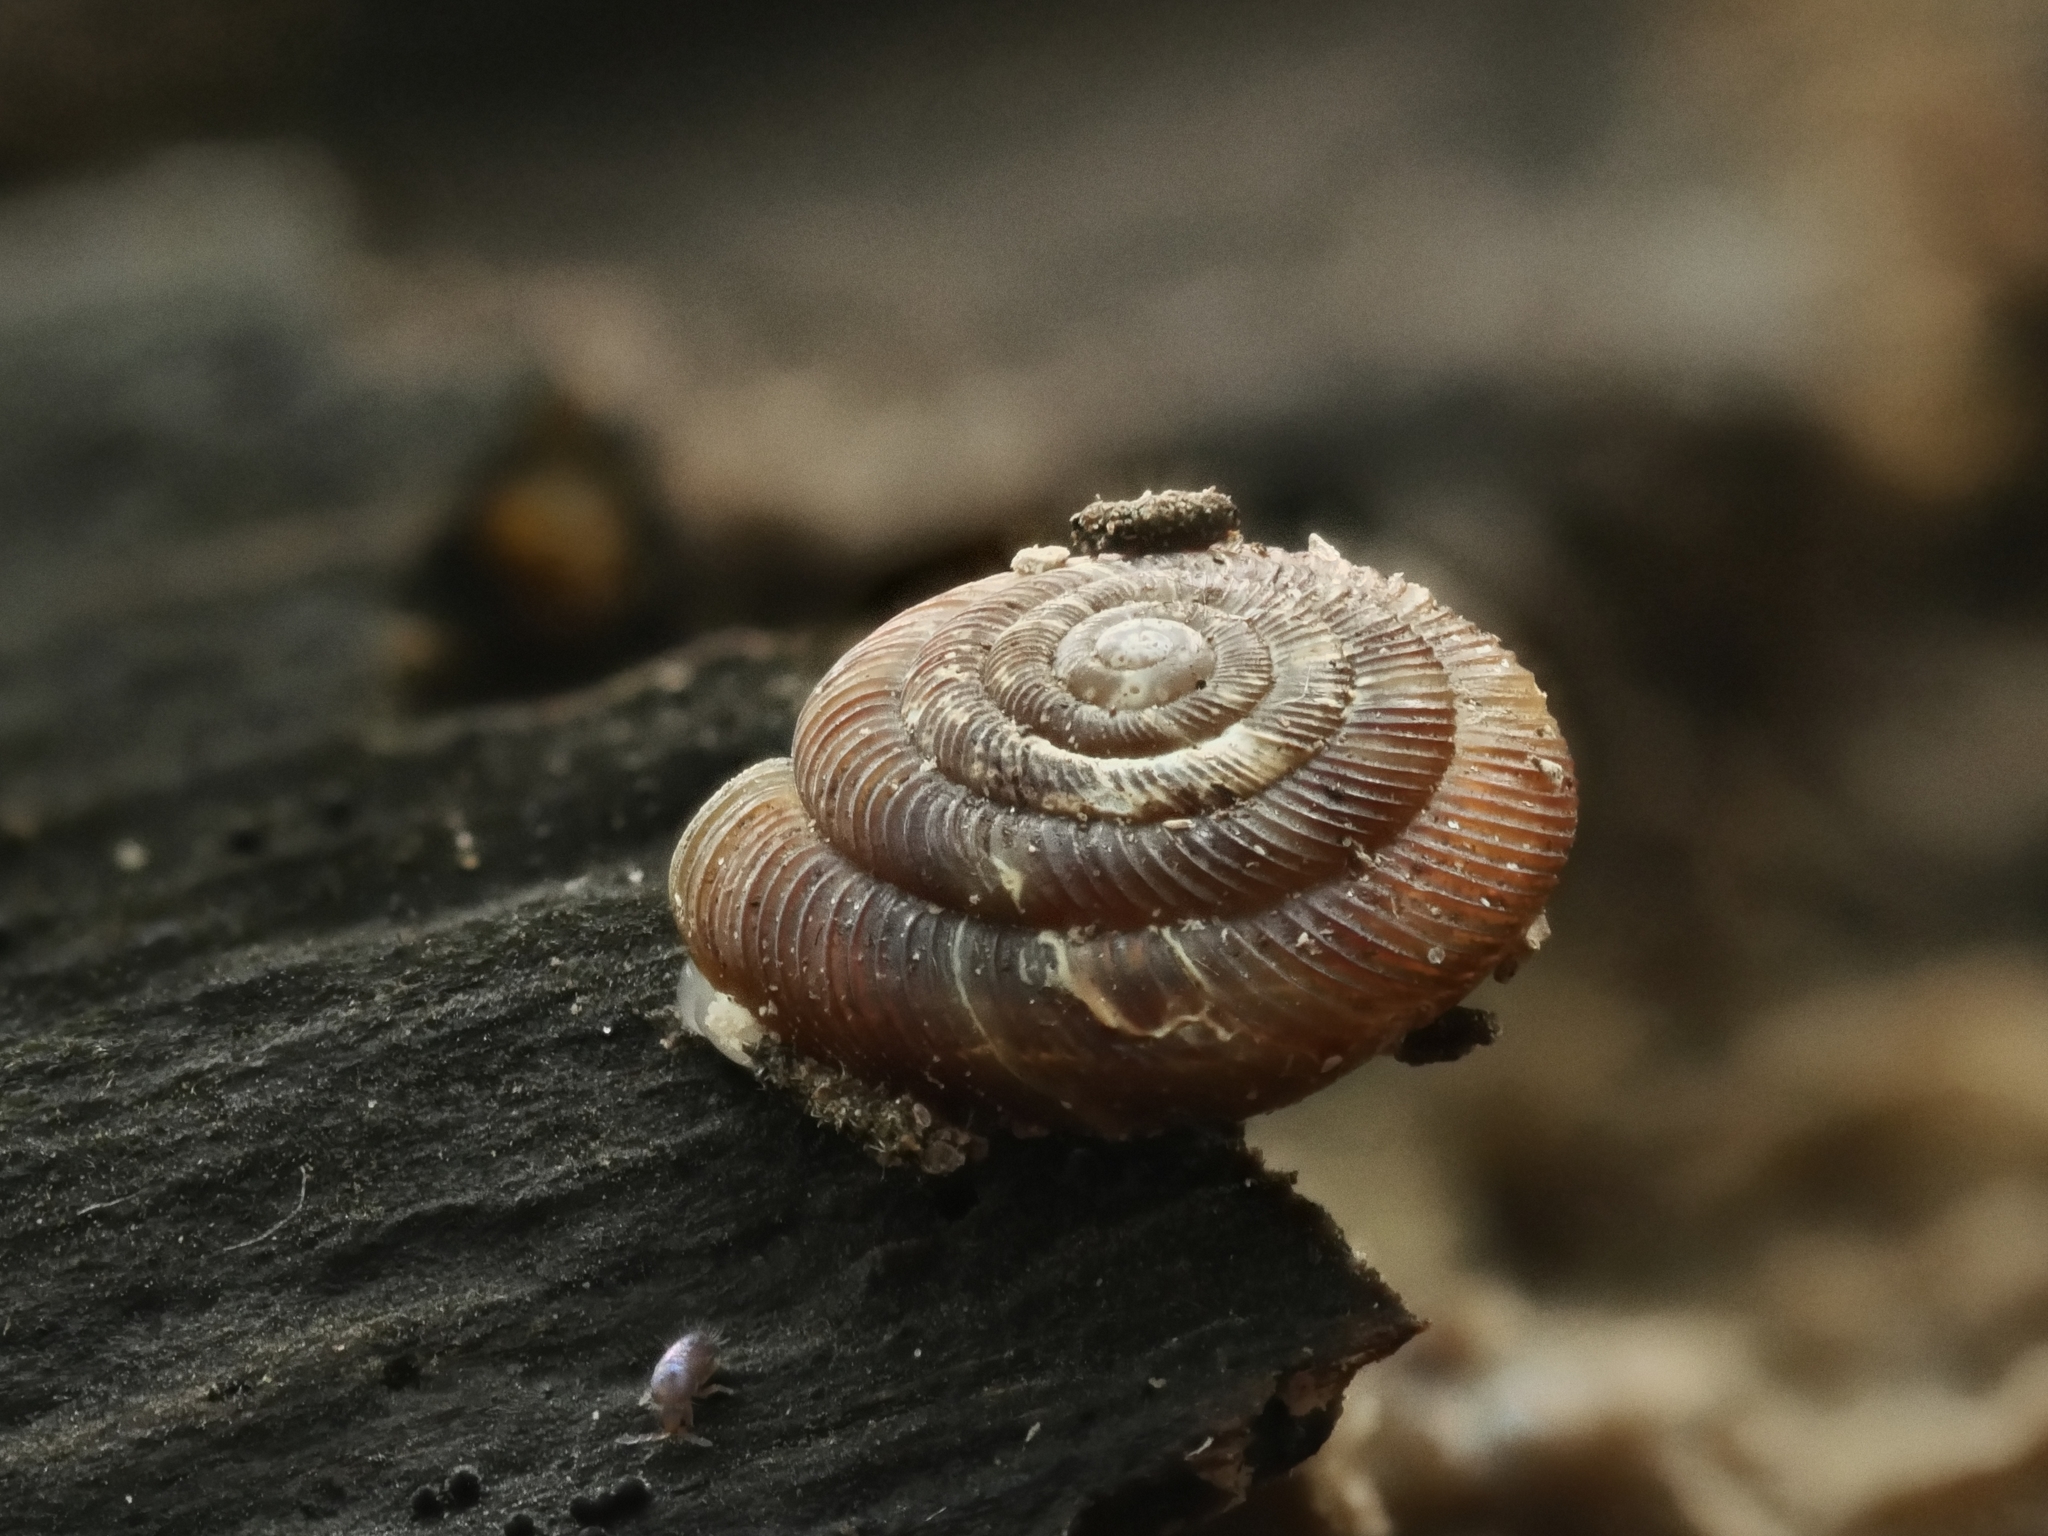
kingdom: Animalia
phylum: Mollusca
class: Gastropoda
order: Stylommatophora
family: Discidae
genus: Discus
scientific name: Discus rotundatus
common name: Rounded snail
